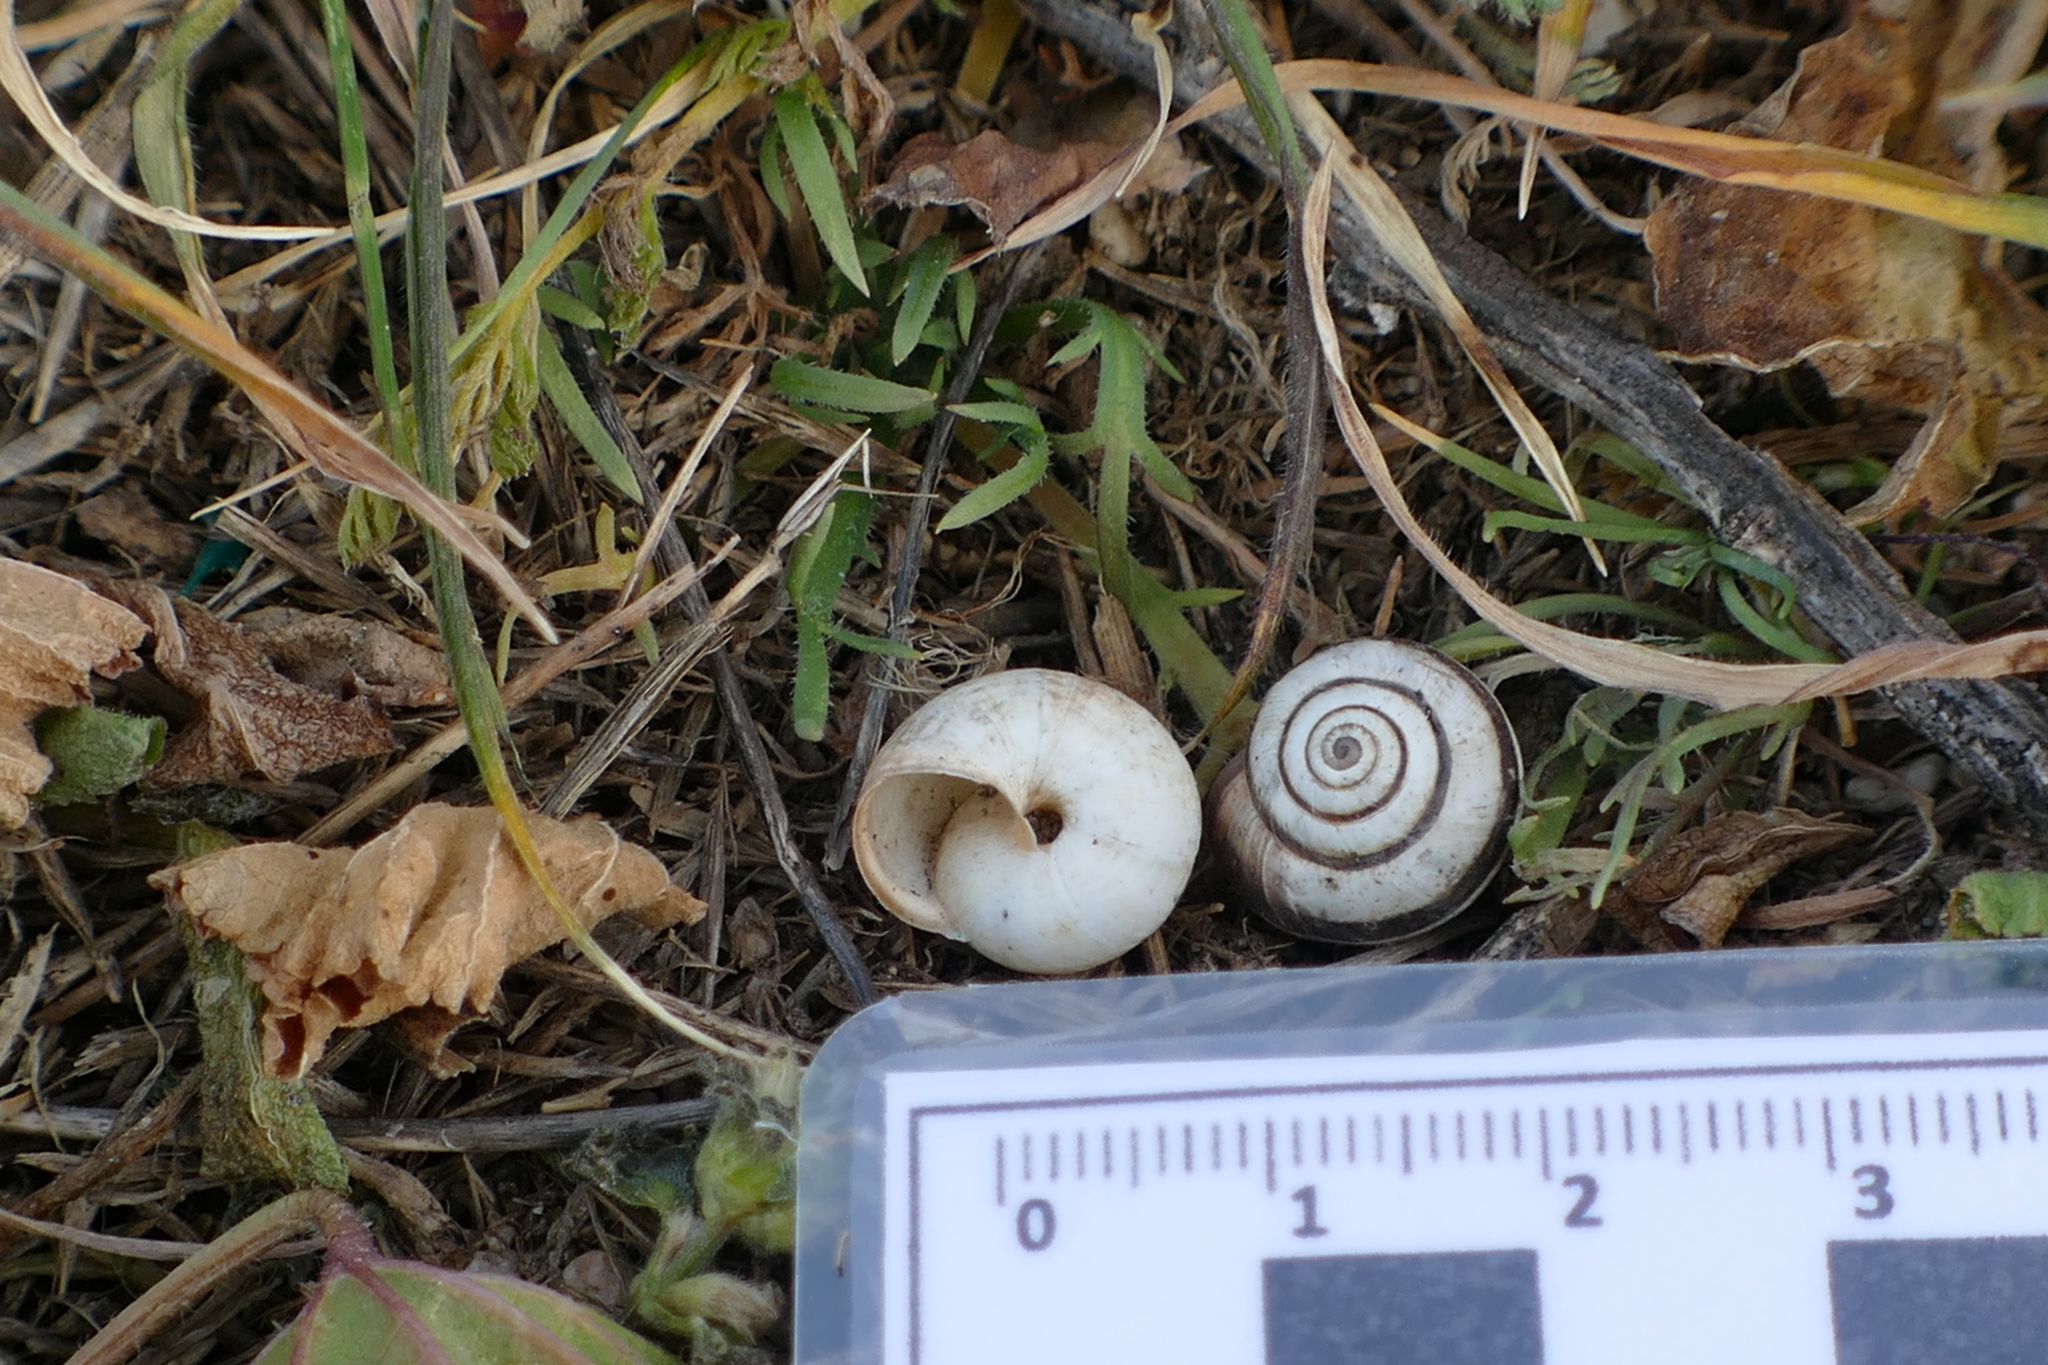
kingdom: Animalia
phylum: Mollusca
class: Gastropoda
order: Stylommatophora
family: Geomitridae
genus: Cernuella
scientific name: Cernuella virgata
